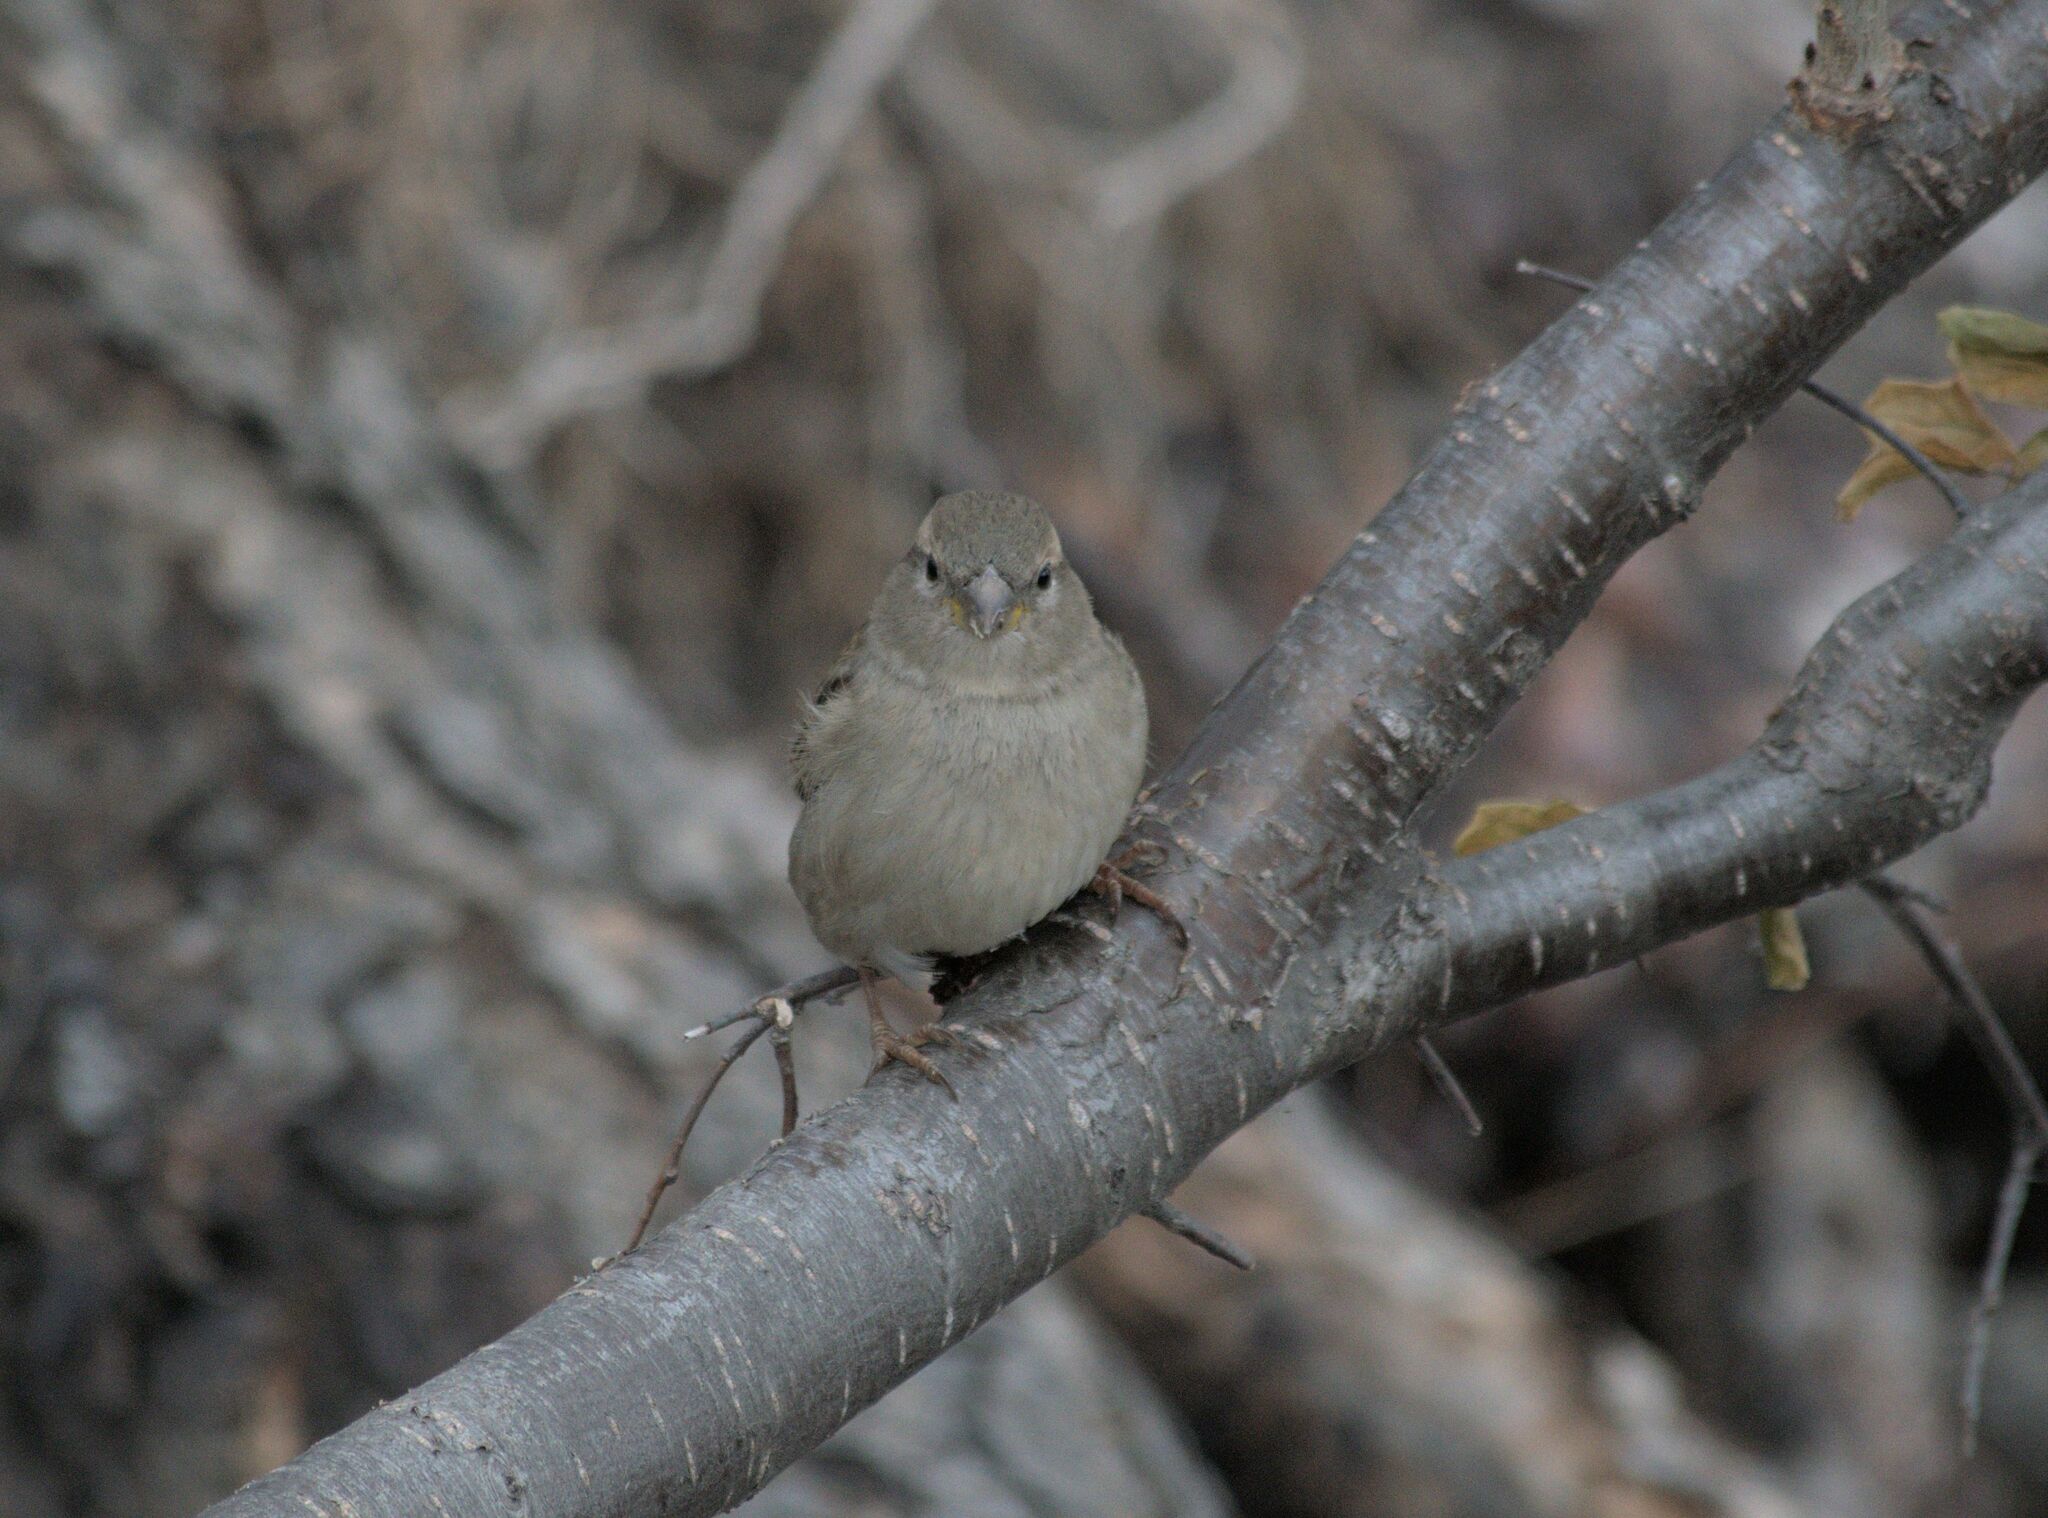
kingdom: Animalia
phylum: Chordata
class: Aves
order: Passeriformes
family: Passeridae
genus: Passer
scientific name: Passer domesticus
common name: House sparrow
